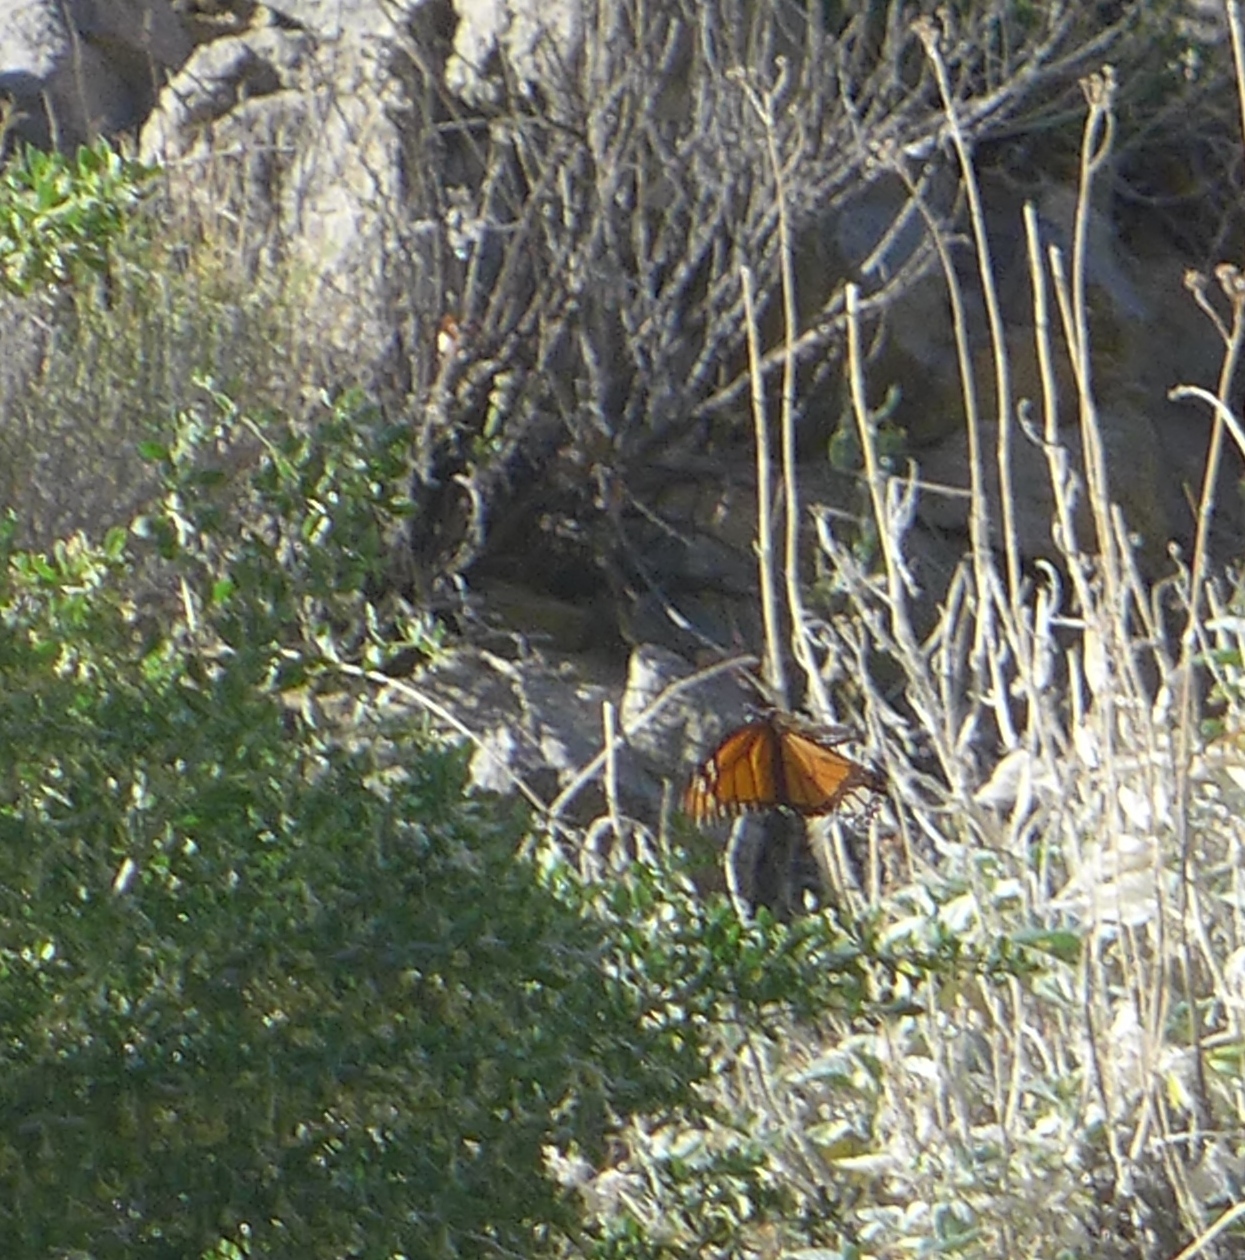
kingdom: Animalia
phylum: Arthropoda
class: Insecta
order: Lepidoptera
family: Nymphalidae
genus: Danaus
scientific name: Danaus plexippus
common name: Monarch
